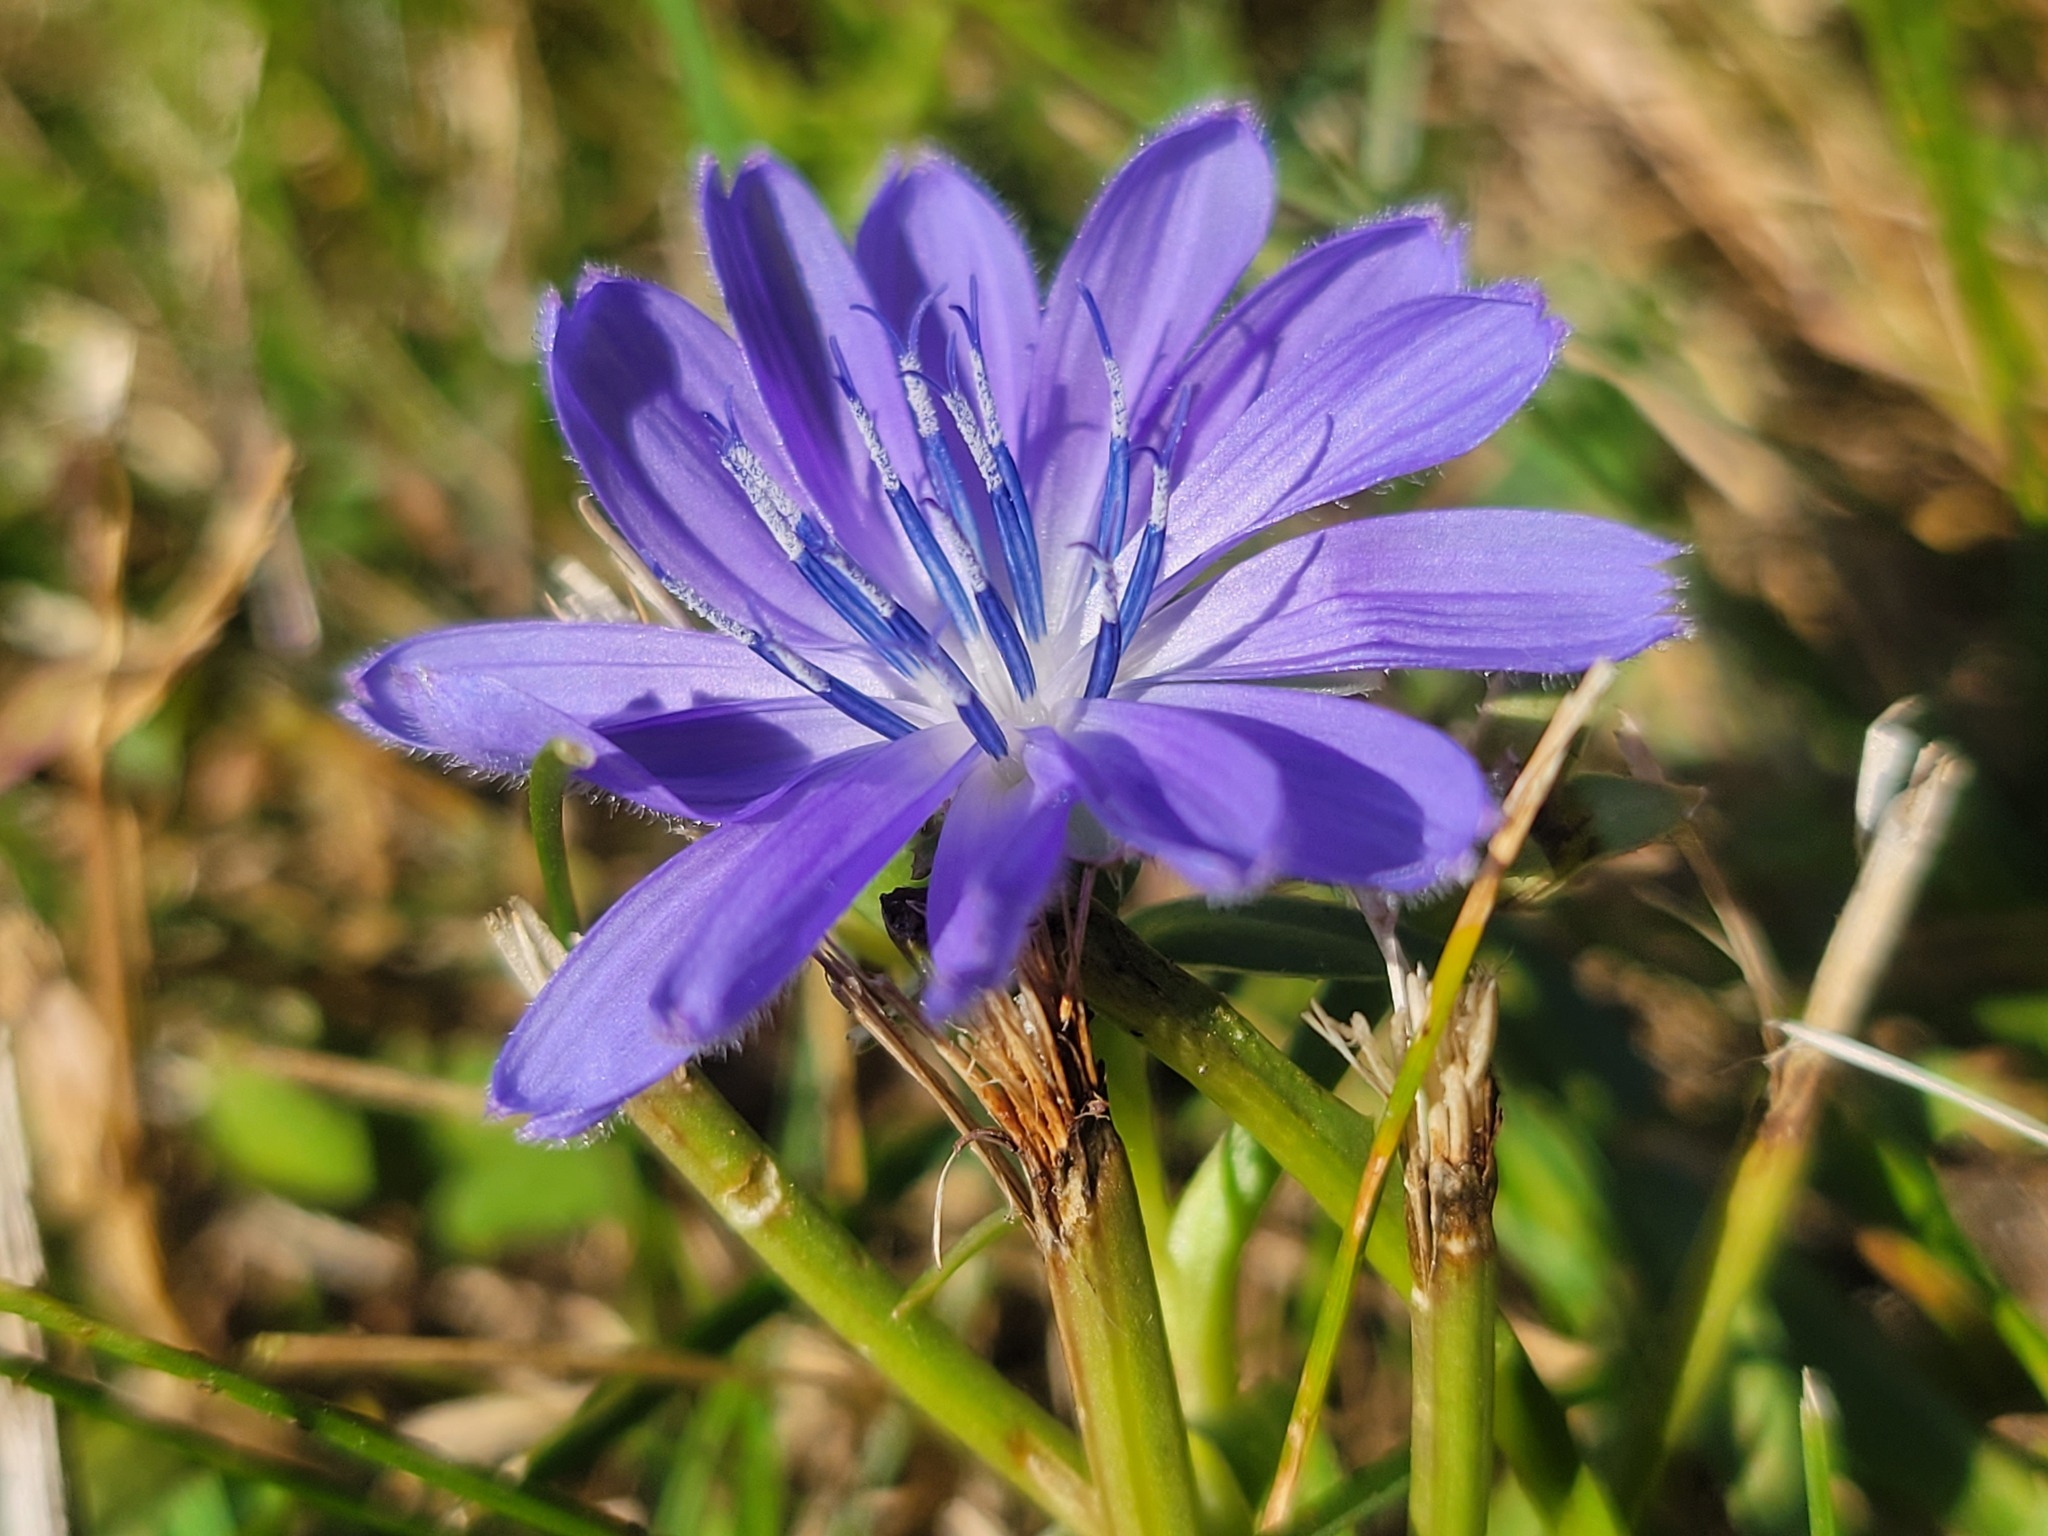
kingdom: Plantae
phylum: Tracheophyta
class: Magnoliopsida
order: Asterales
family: Asteraceae
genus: Cichorium
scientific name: Cichorium intybus
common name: Chicory
